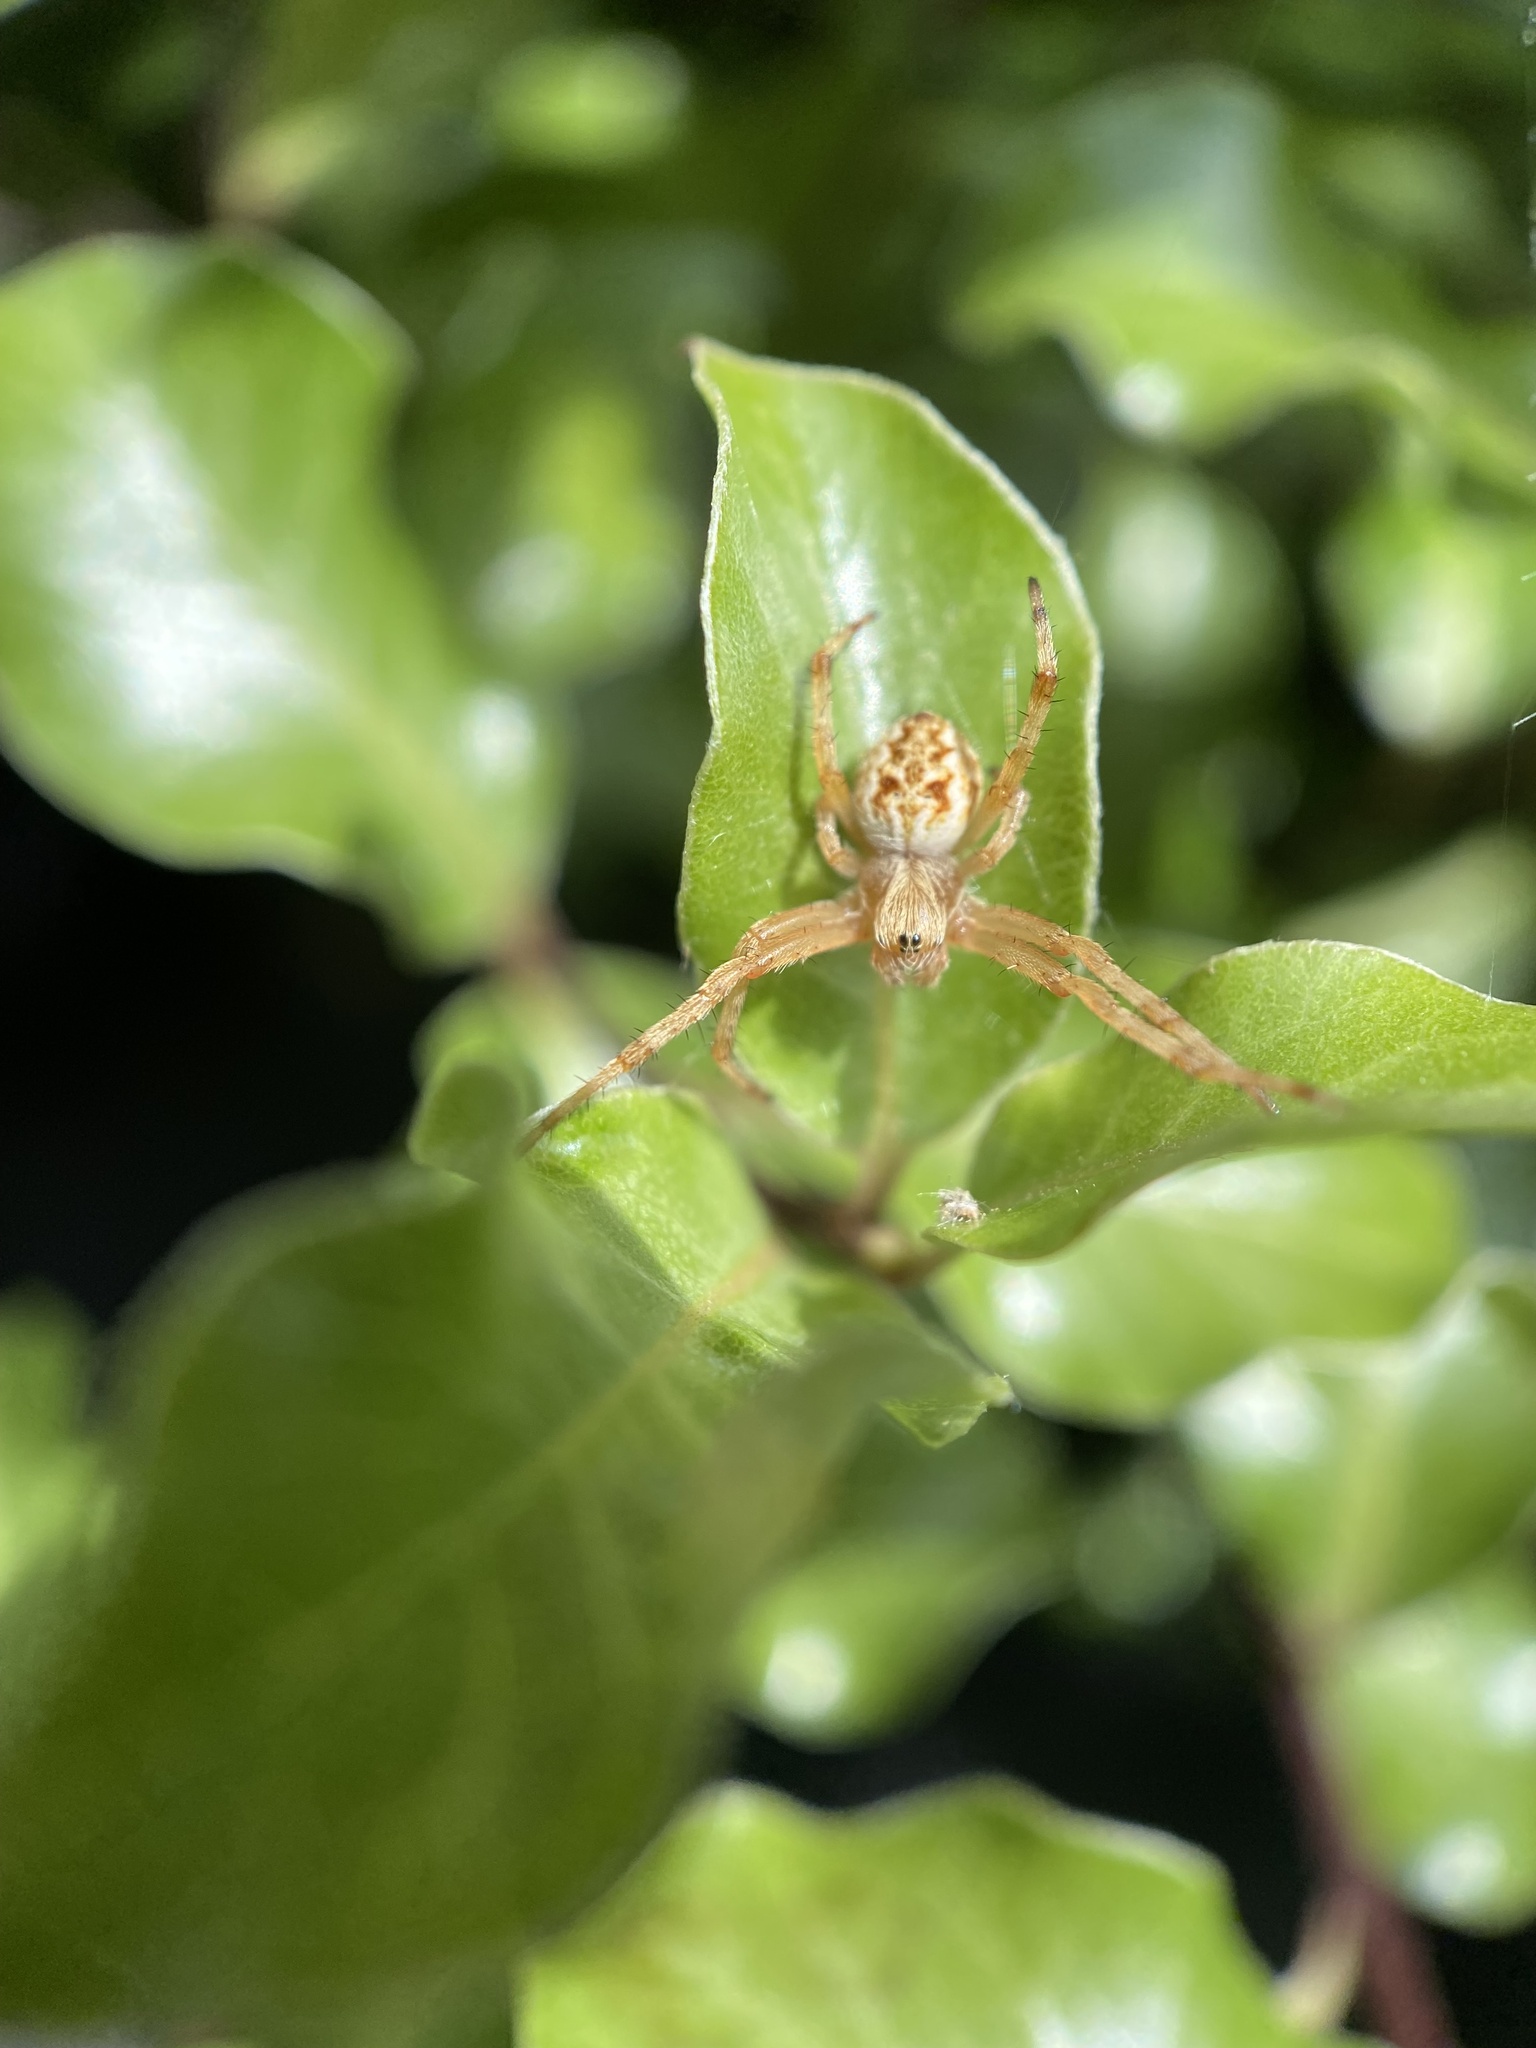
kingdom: Animalia
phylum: Arthropoda
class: Arachnida
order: Araneae
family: Araneidae
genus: Salsa
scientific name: Salsa fuliginata
